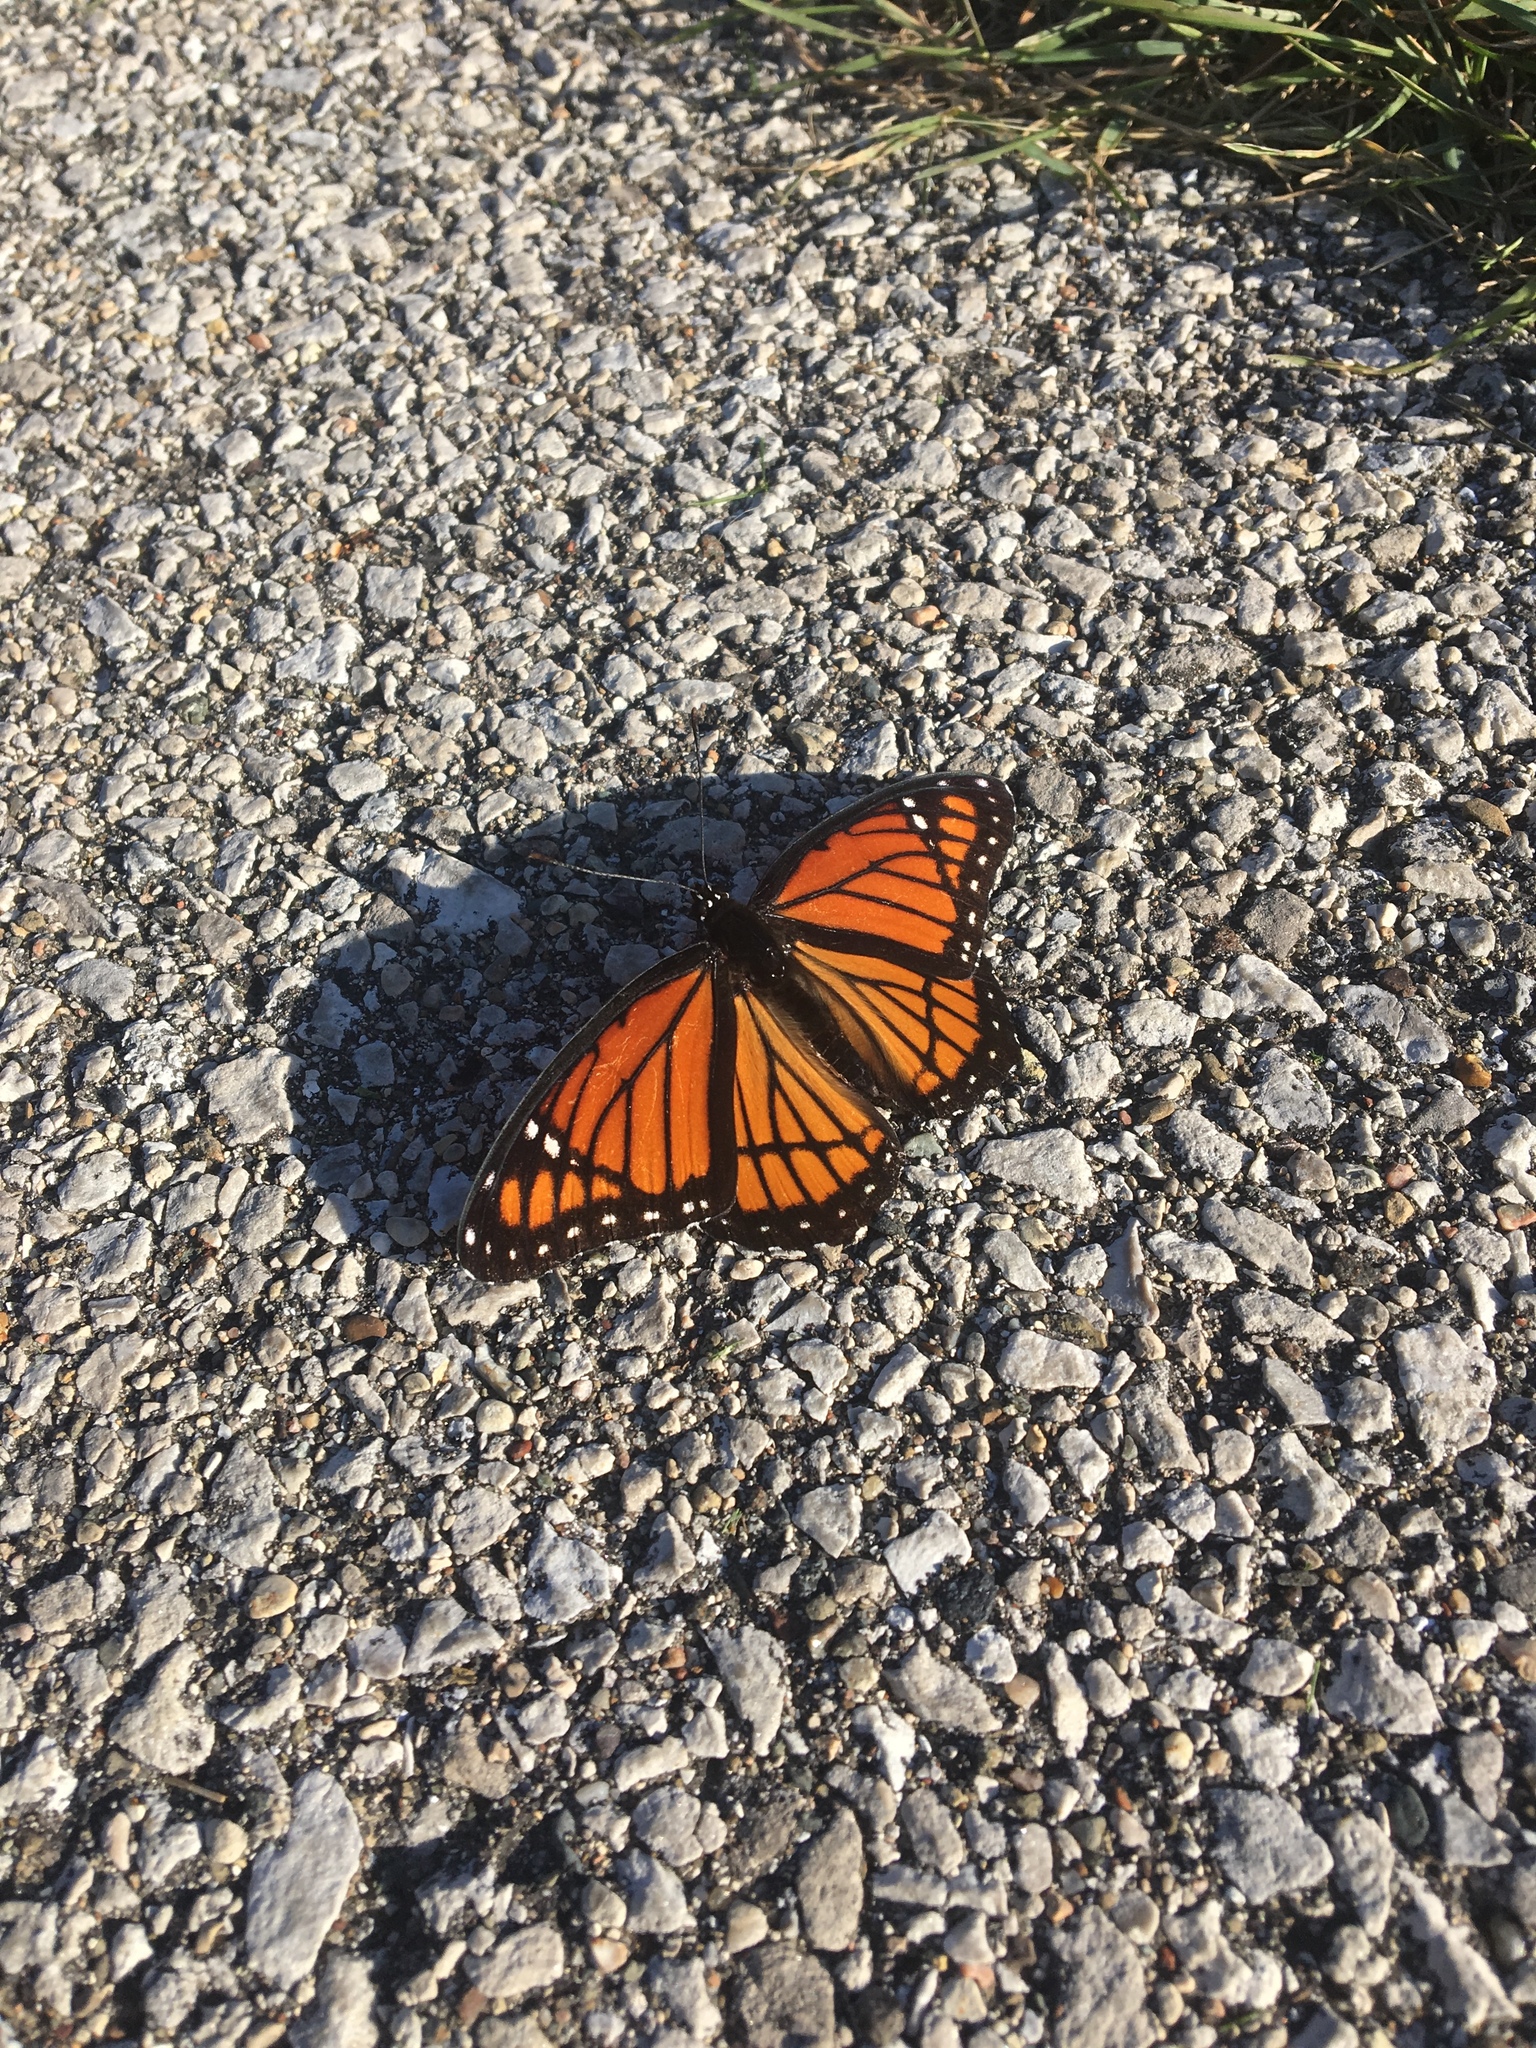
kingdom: Animalia
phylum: Arthropoda
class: Insecta
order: Lepidoptera
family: Nymphalidae
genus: Limenitis
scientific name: Limenitis archippus
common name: Viceroy
